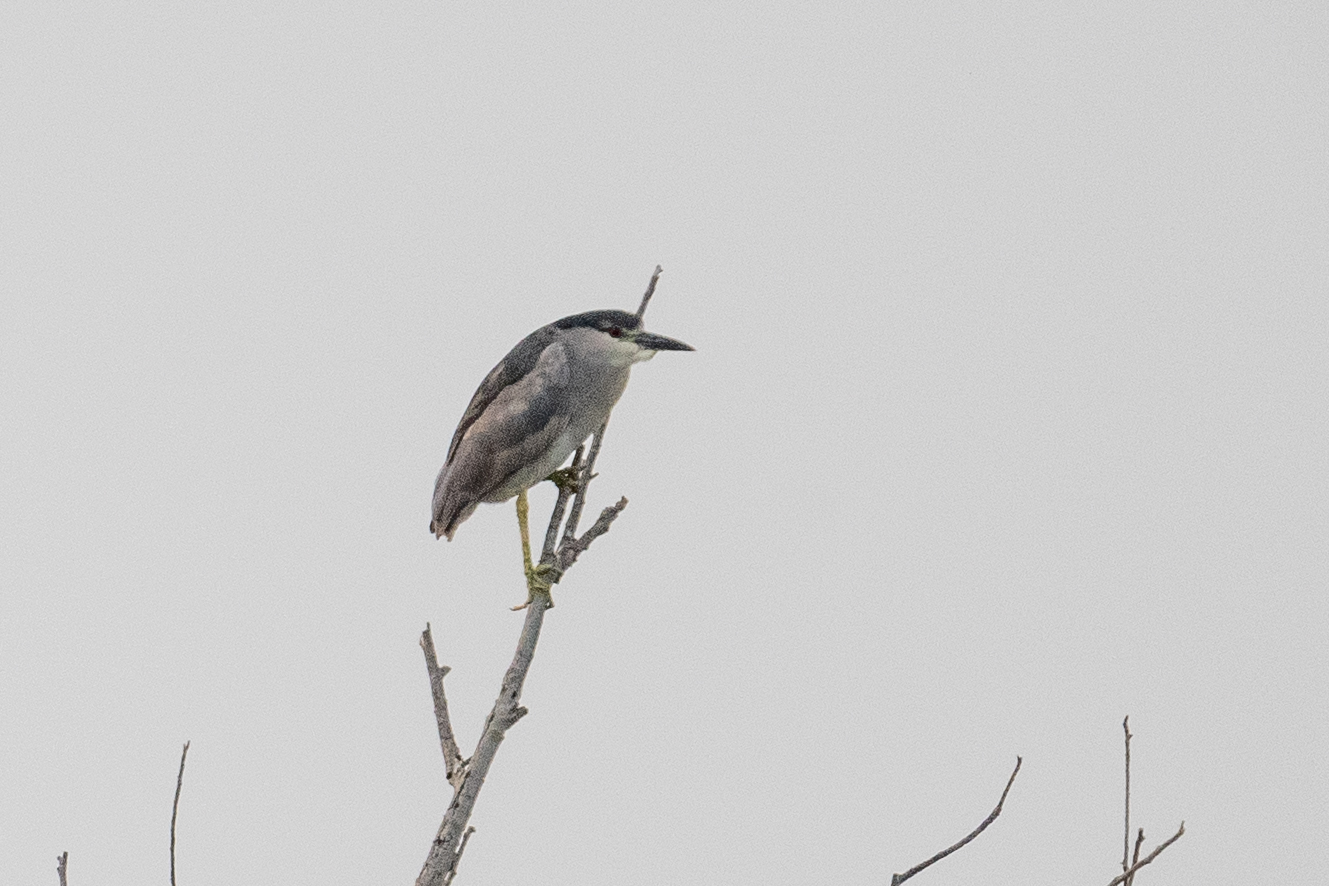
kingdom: Animalia
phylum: Chordata
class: Aves
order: Pelecaniformes
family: Ardeidae
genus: Nycticorax
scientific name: Nycticorax nycticorax
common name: Black-crowned night heron
